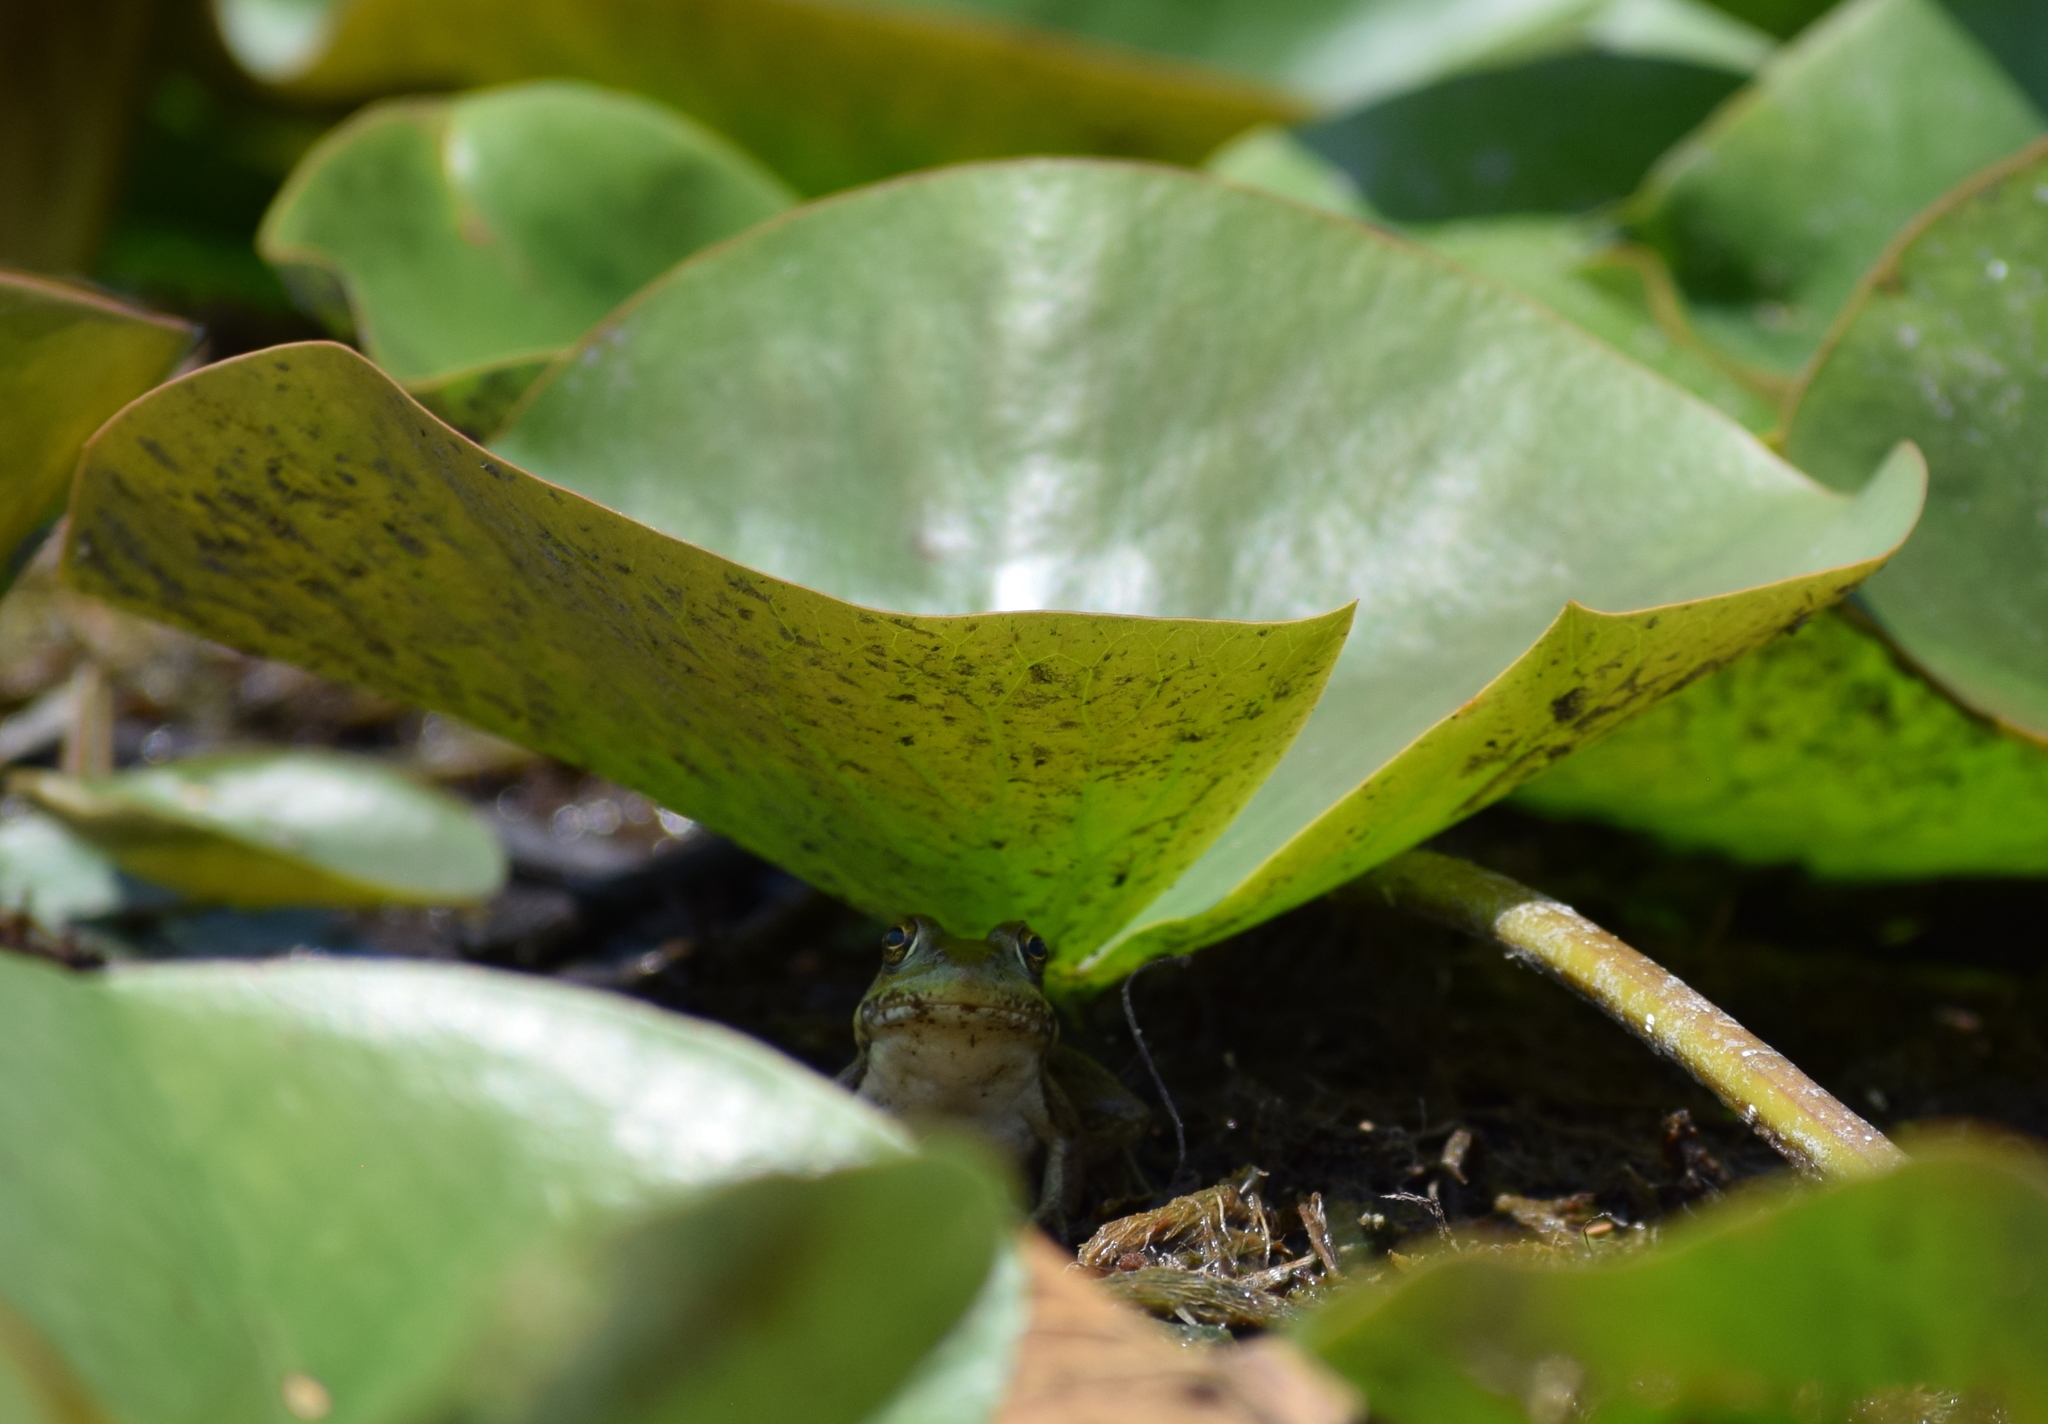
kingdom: Animalia
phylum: Chordata
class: Amphibia
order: Anura
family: Ranidae
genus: Lithobates
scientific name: Lithobates clamitans
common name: Green frog
